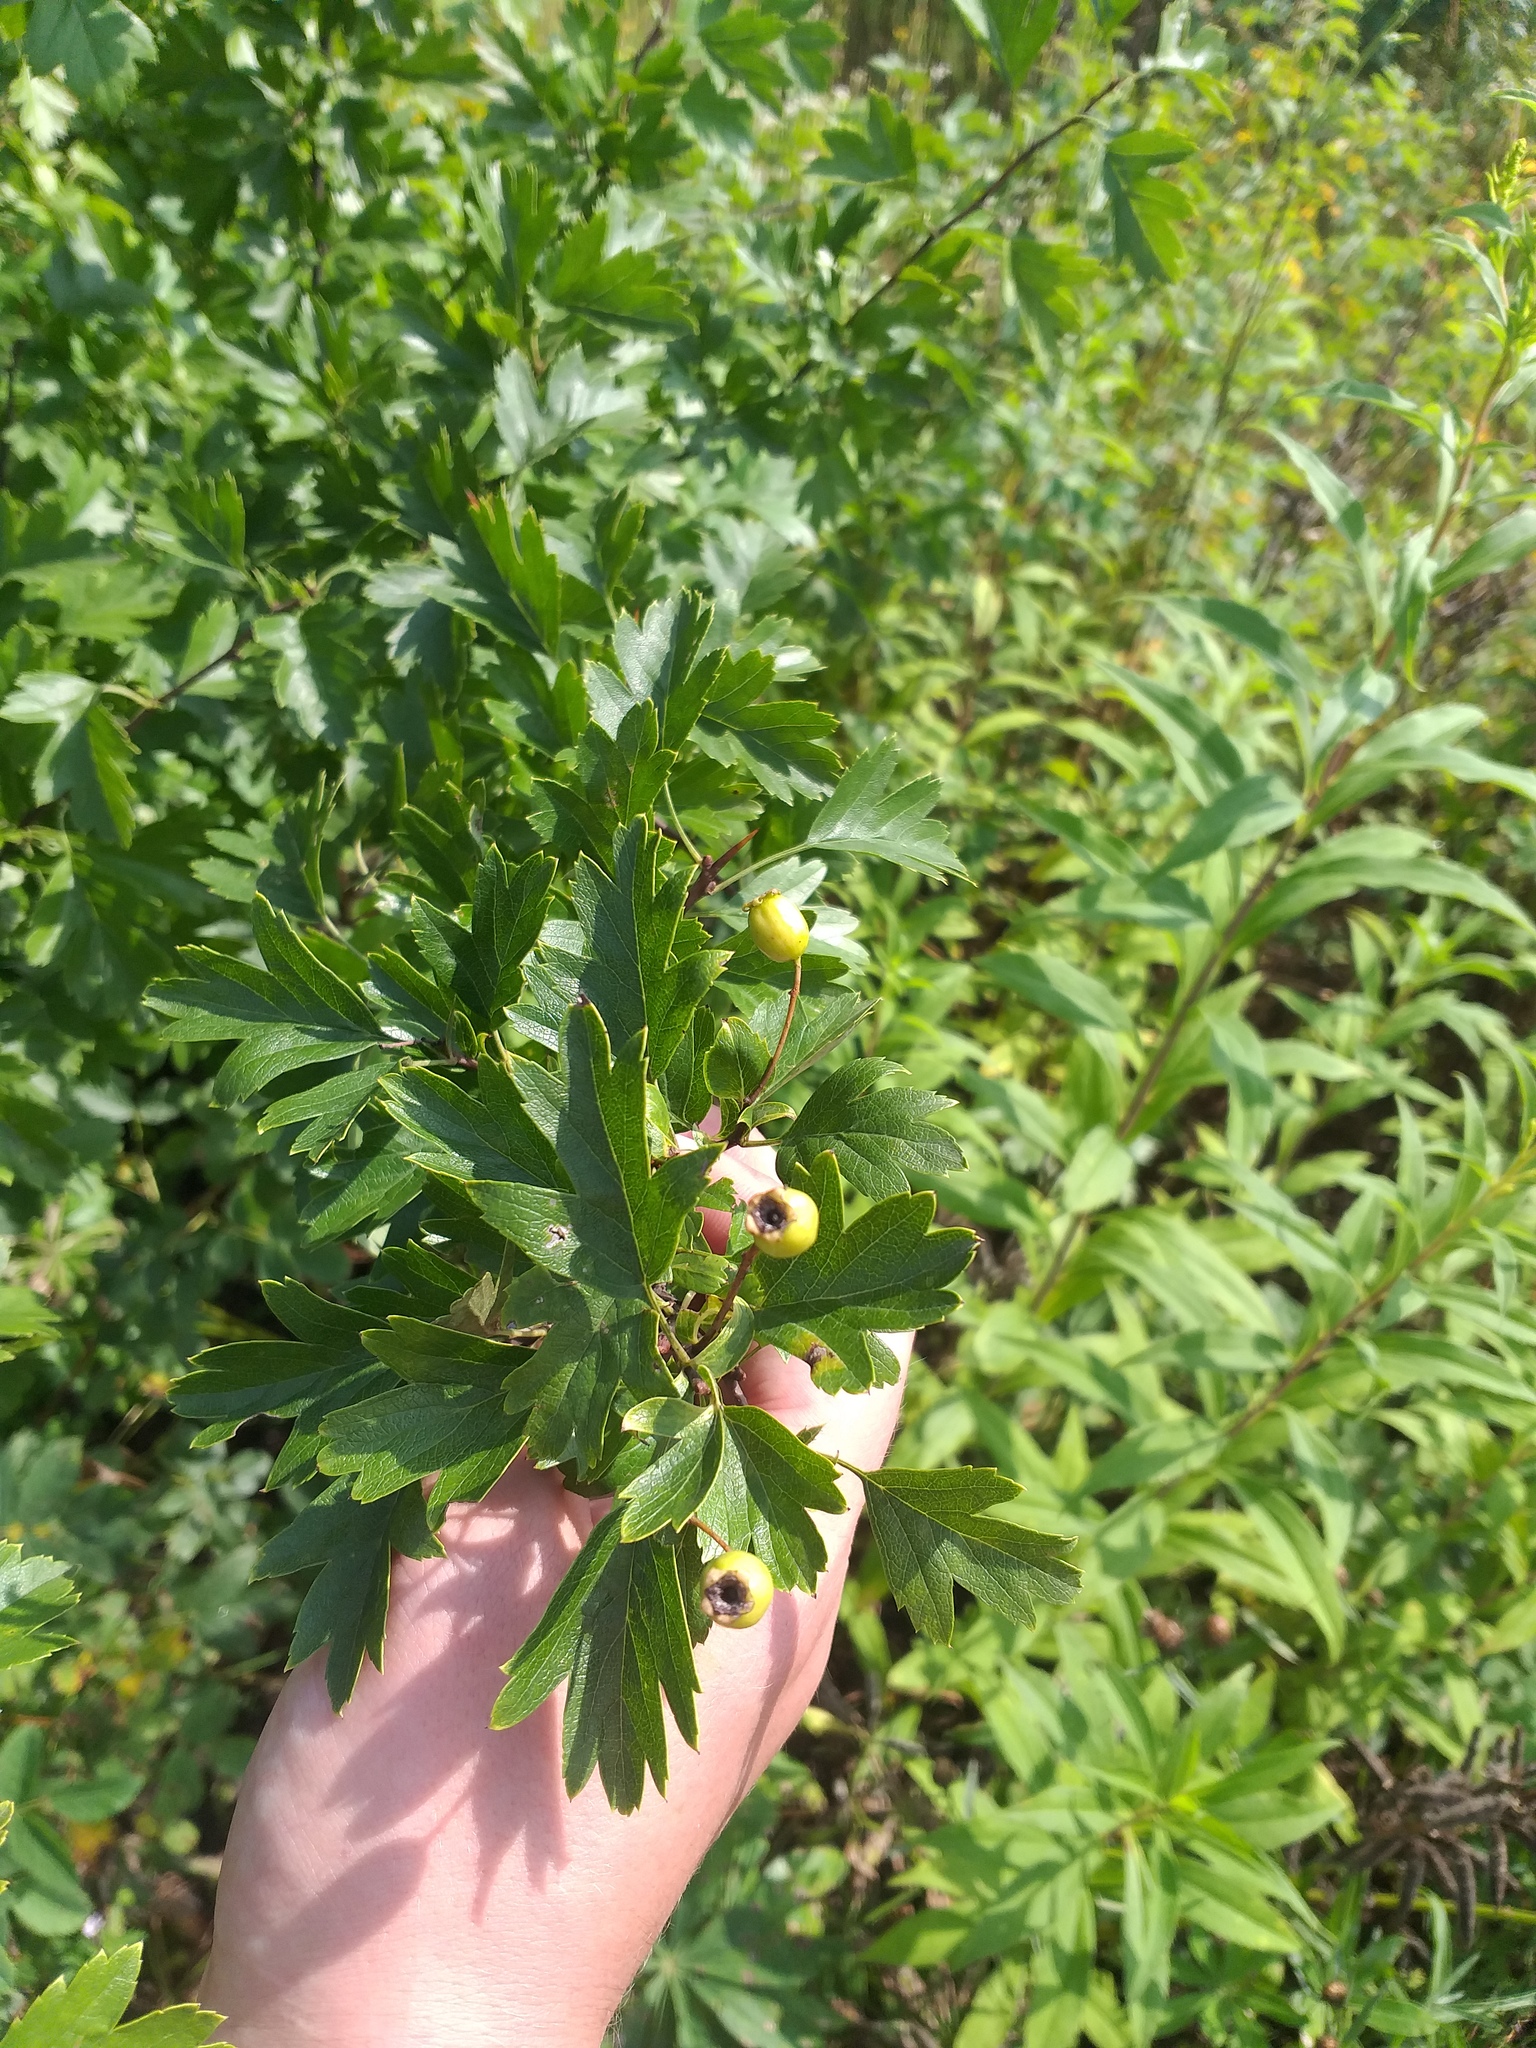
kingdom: Plantae
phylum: Tracheophyta
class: Magnoliopsida
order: Rosales
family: Rosaceae
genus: Crataegus
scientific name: Crataegus monogyna
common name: Hawthorn
